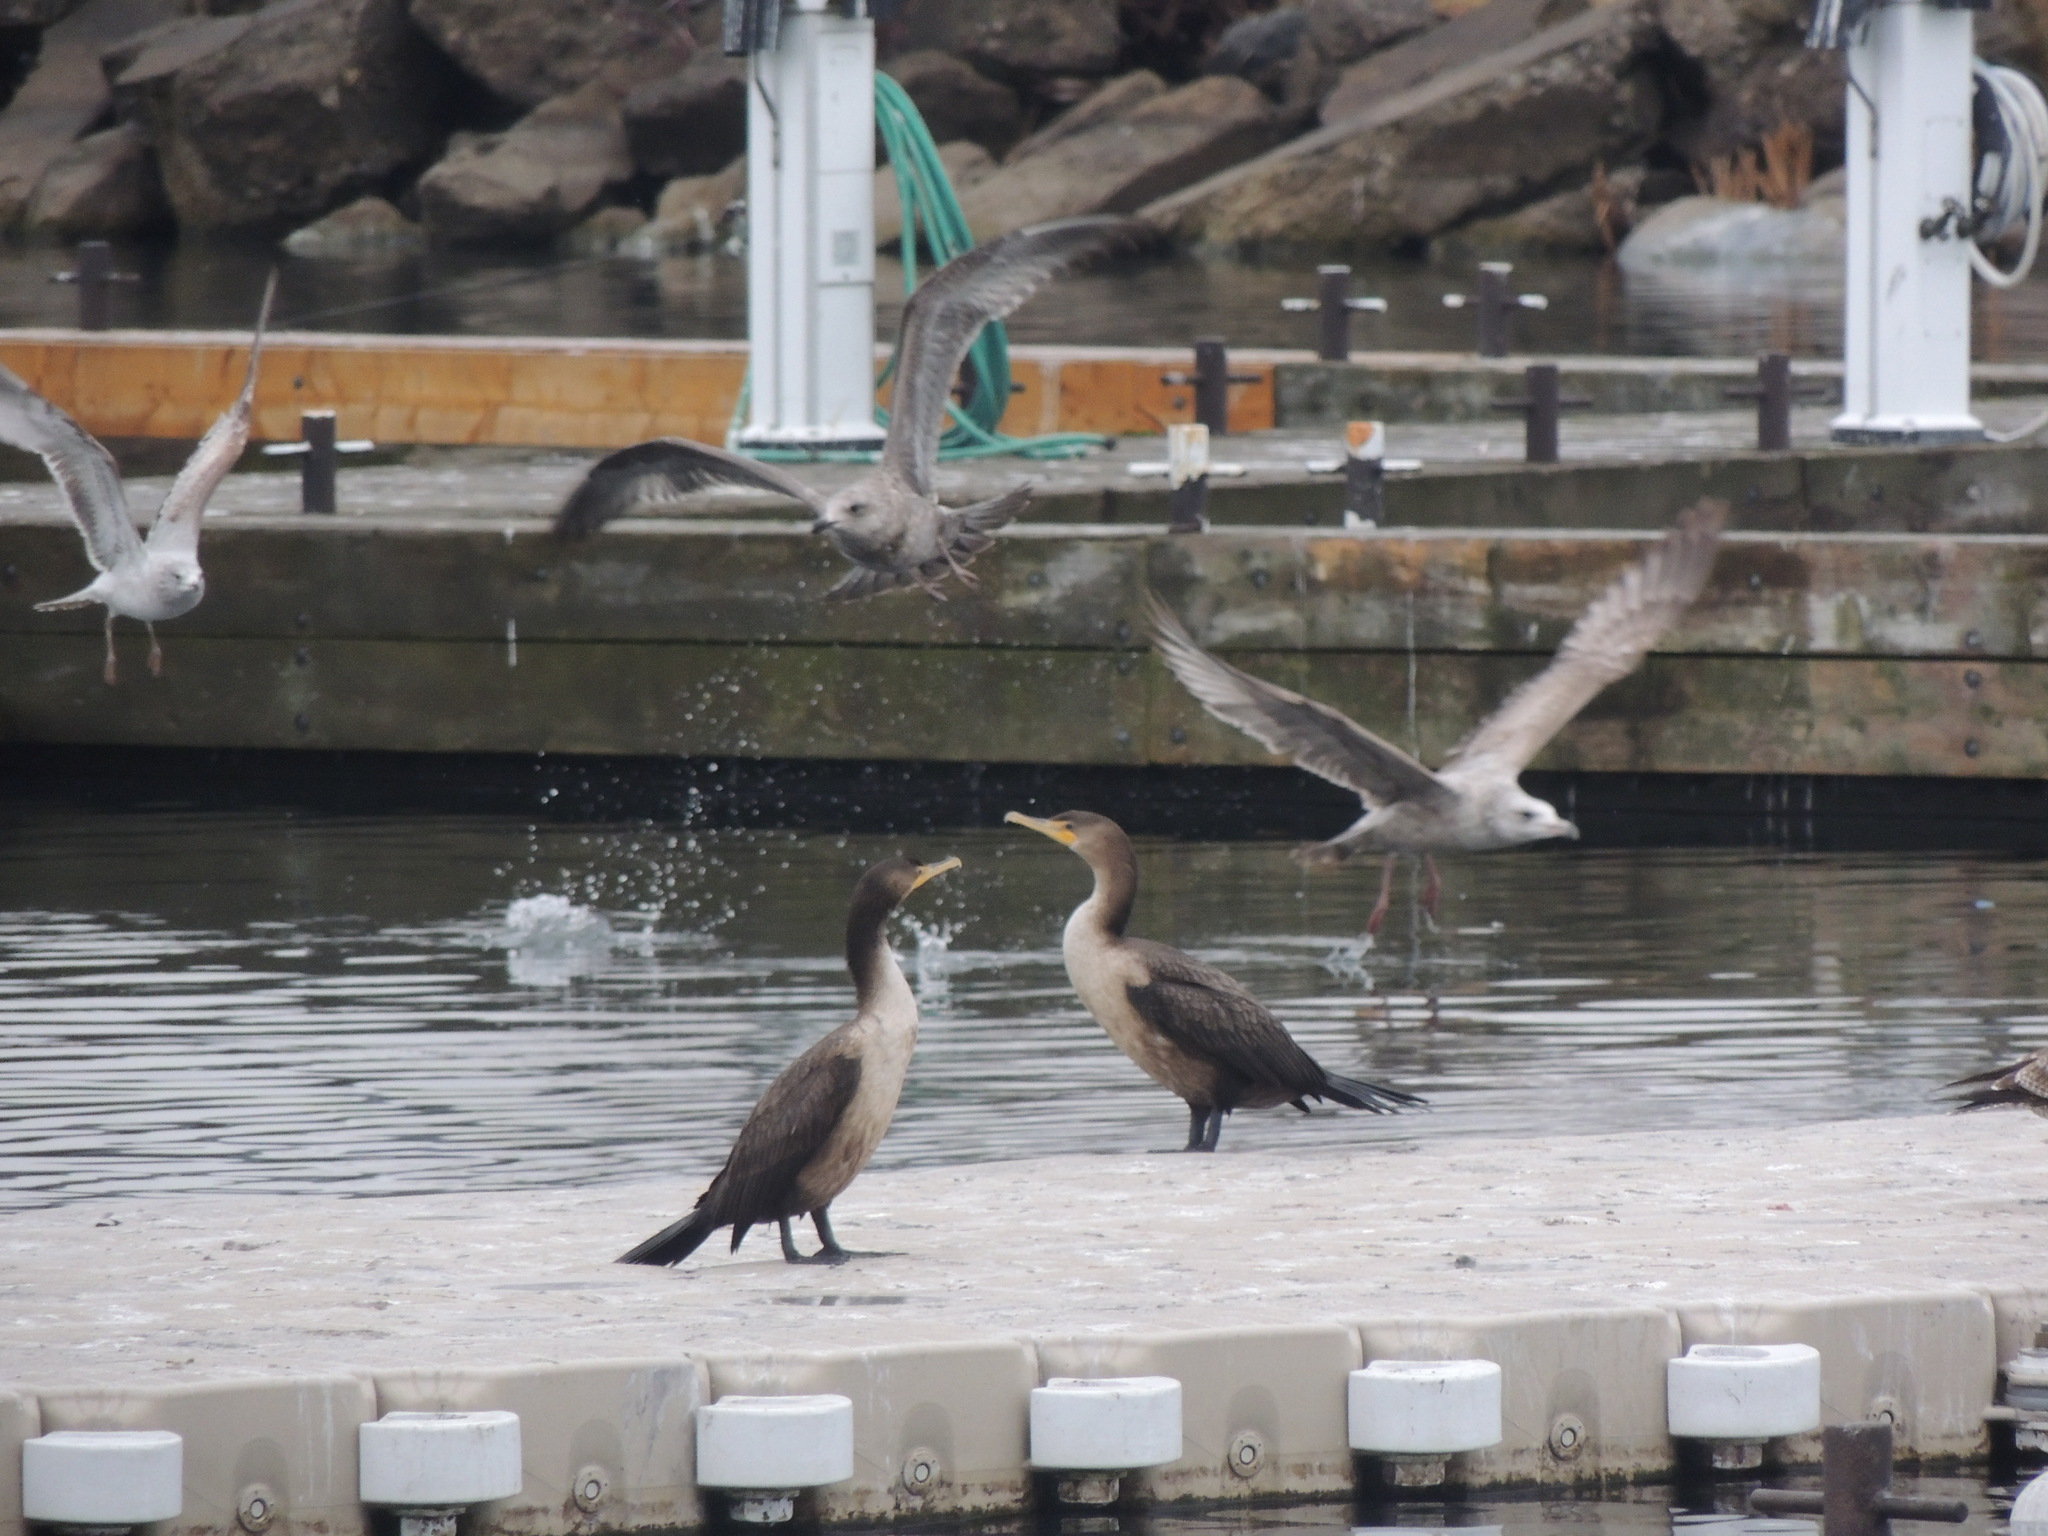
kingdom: Animalia
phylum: Chordata
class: Aves
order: Suliformes
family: Phalacrocoracidae
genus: Phalacrocorax
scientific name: Phalacrocorax auritus
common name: Double-crested cormorant
